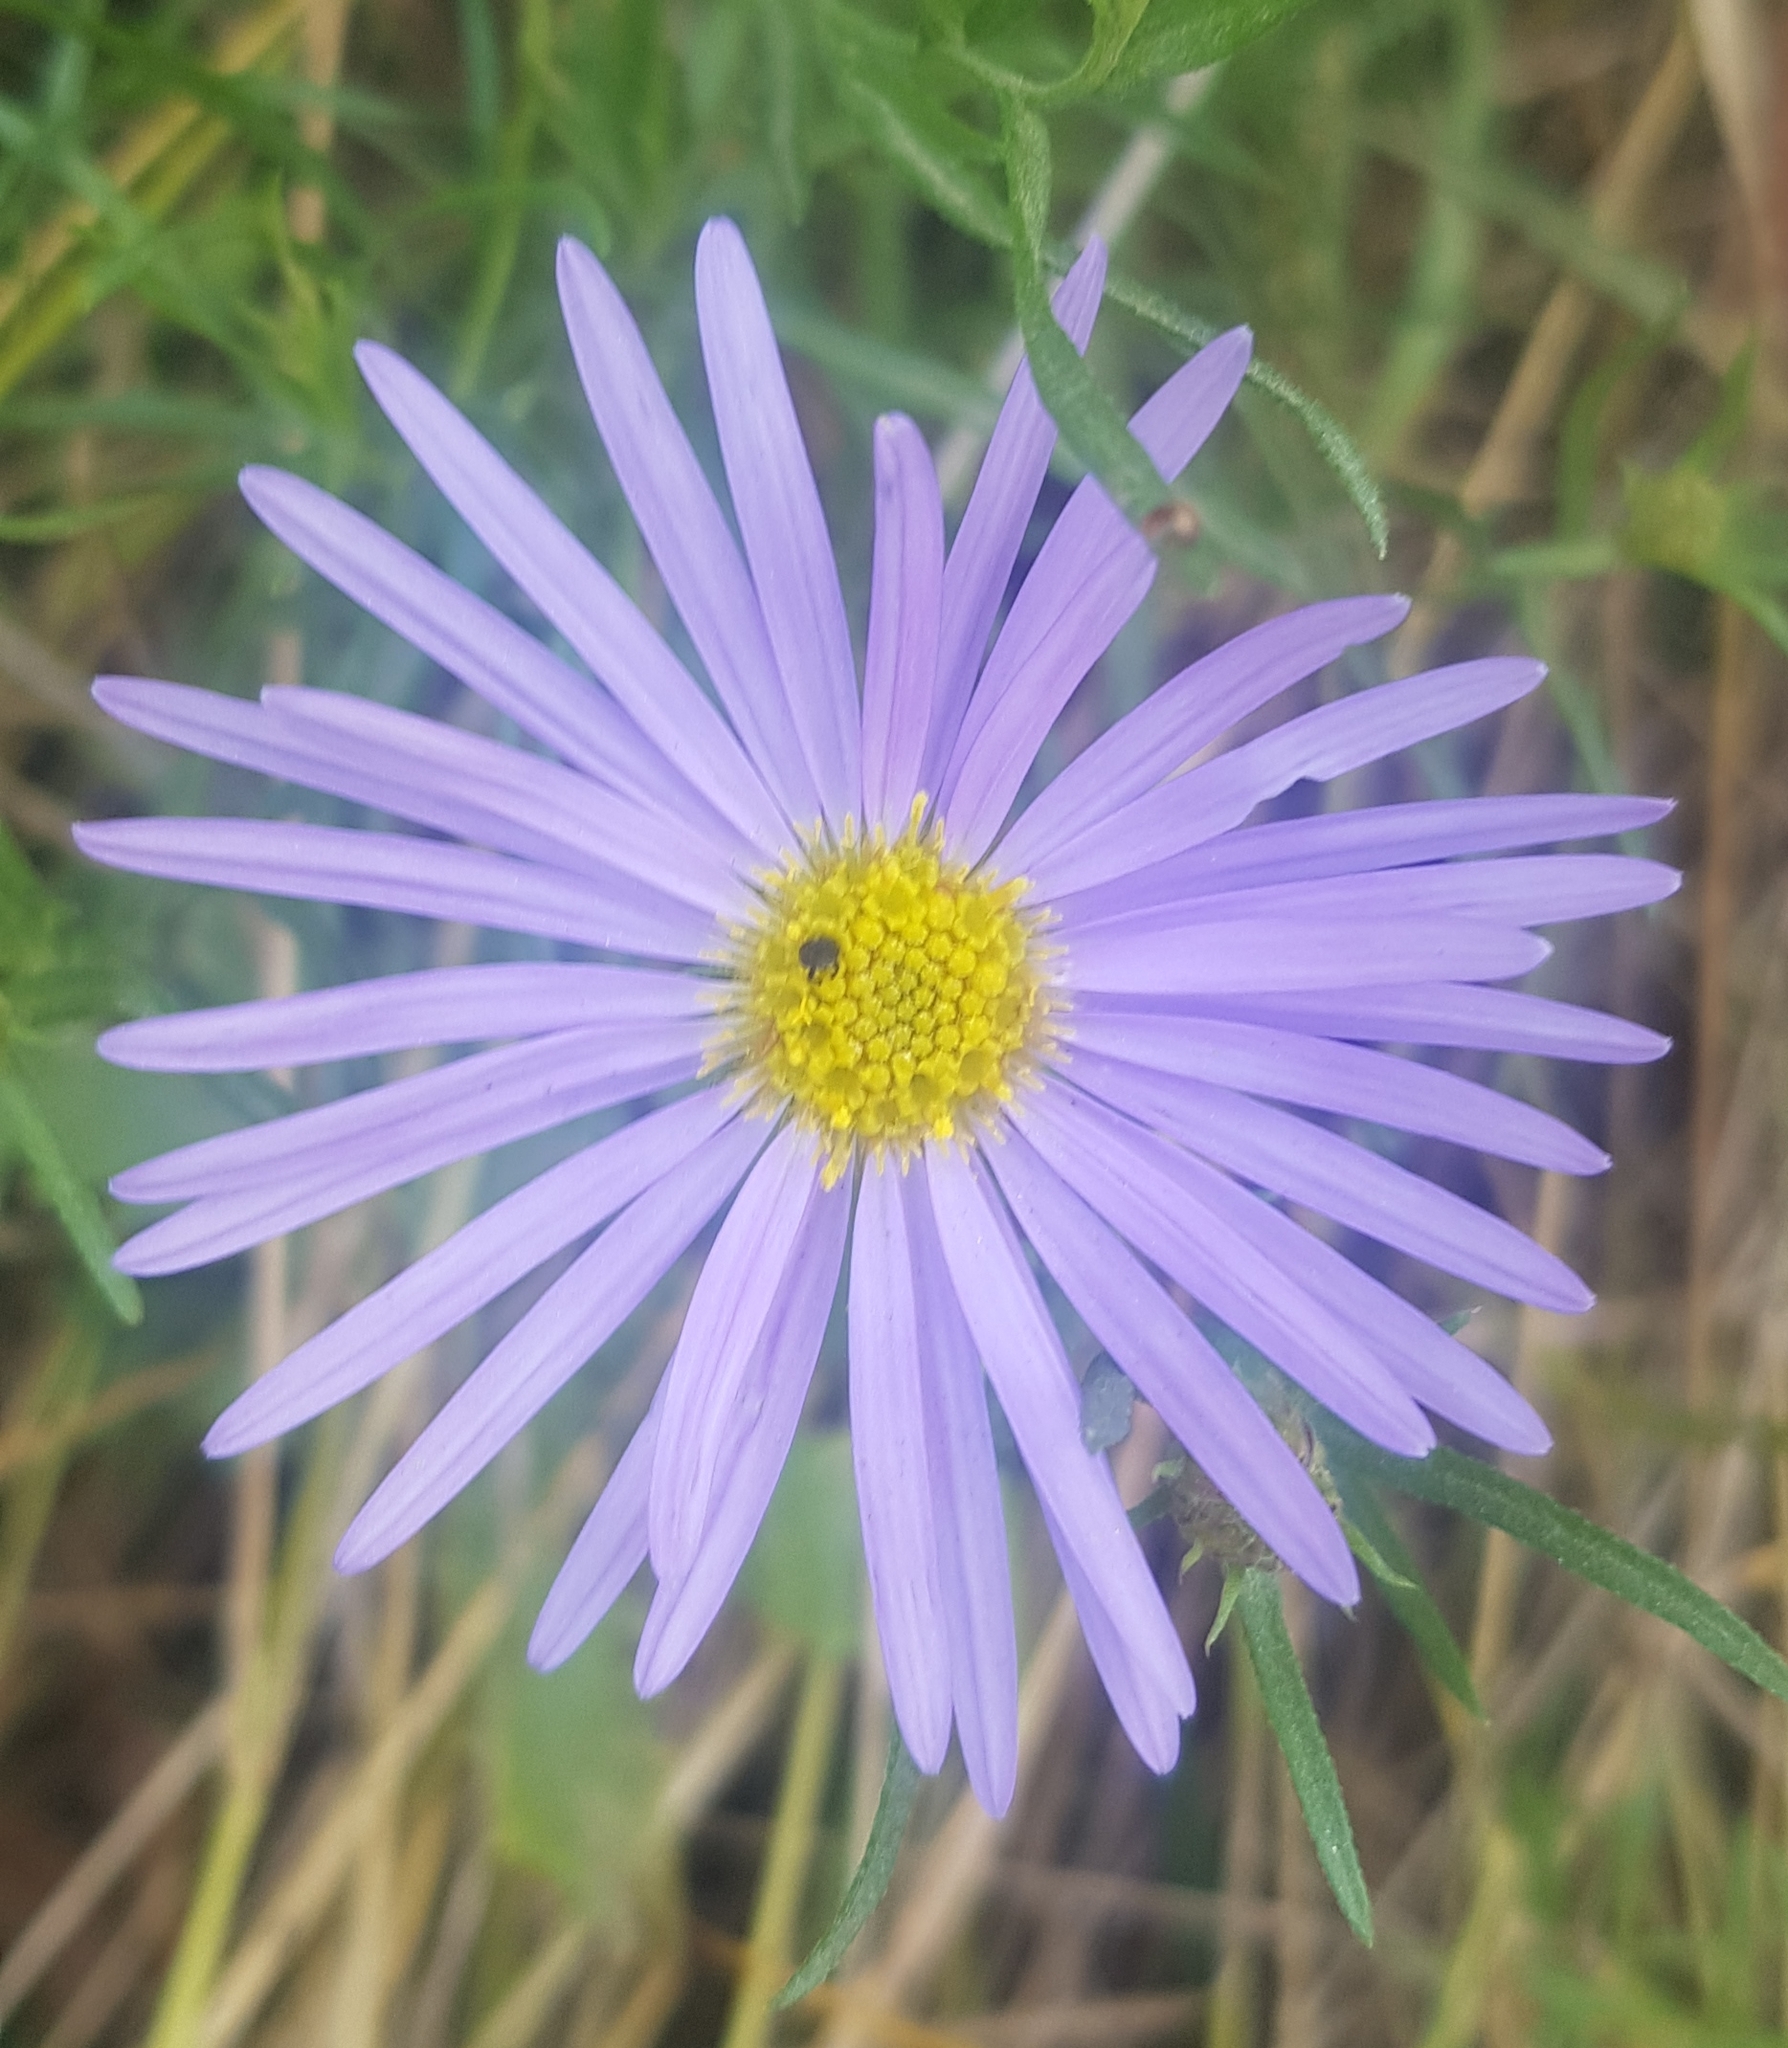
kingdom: Plantae
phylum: Tracheophyta
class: Magnoliopsida
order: Asterales
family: Asteraceae
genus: Aster
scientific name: Aster alpinus
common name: Alpine aster
